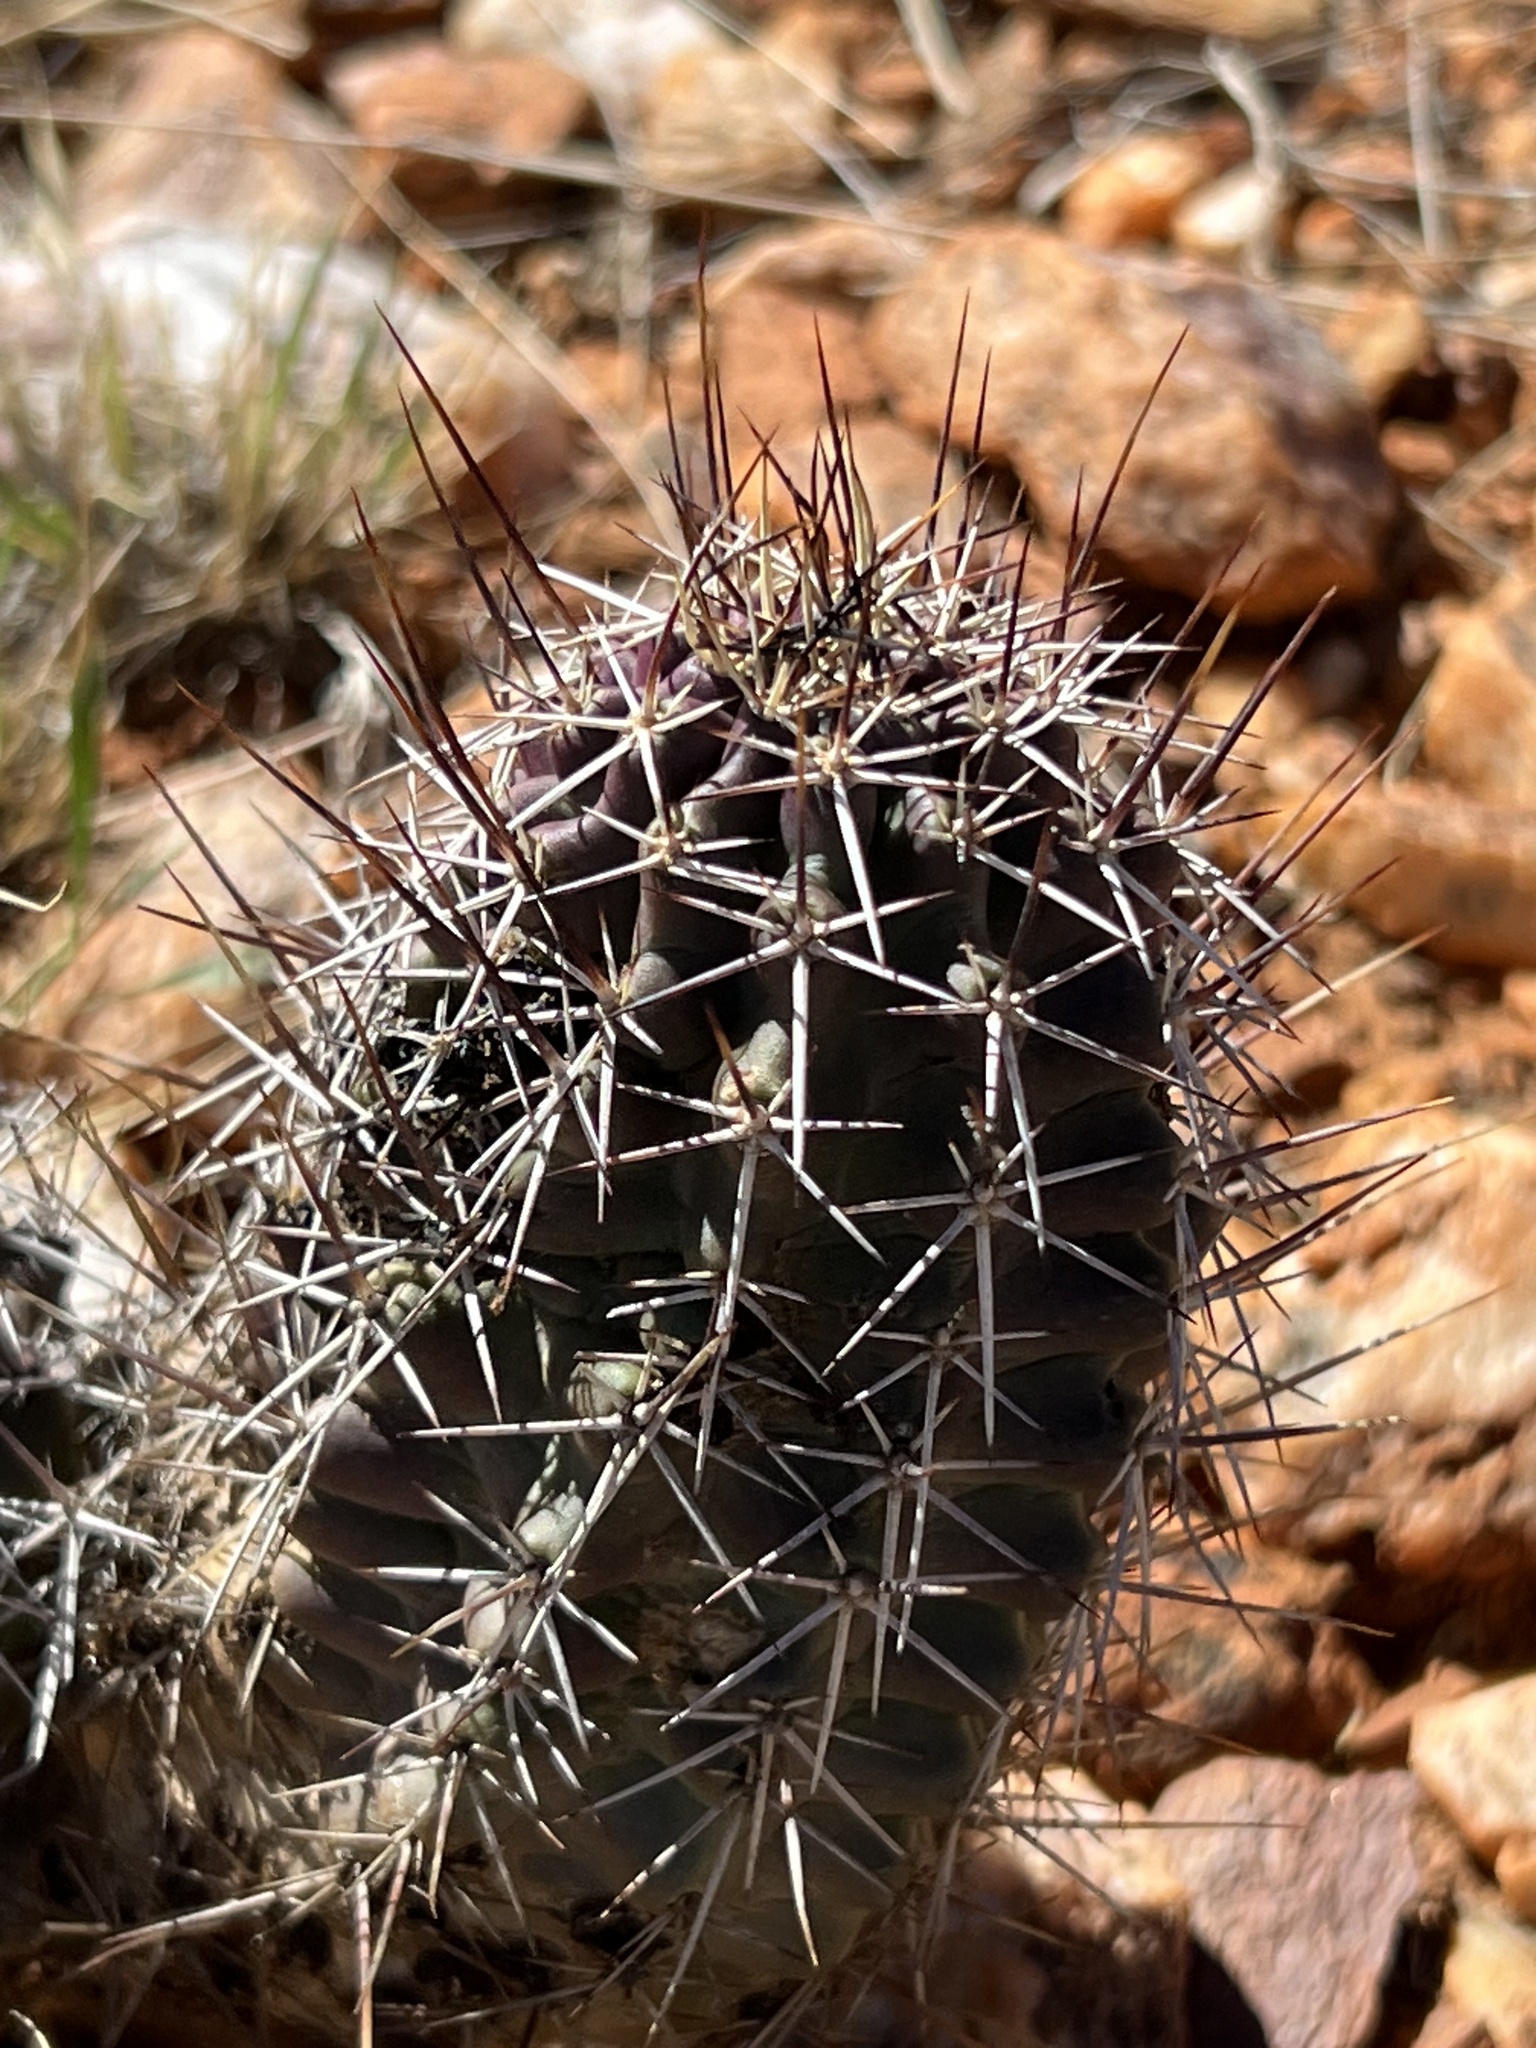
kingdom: Plantae
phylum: Tracheophyta
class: Magnoliopsida
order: Caryophyllales
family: Cactaceae
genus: Echinocereus
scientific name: Echinocereus fendleri
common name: Fendler's hedgehog cactus
